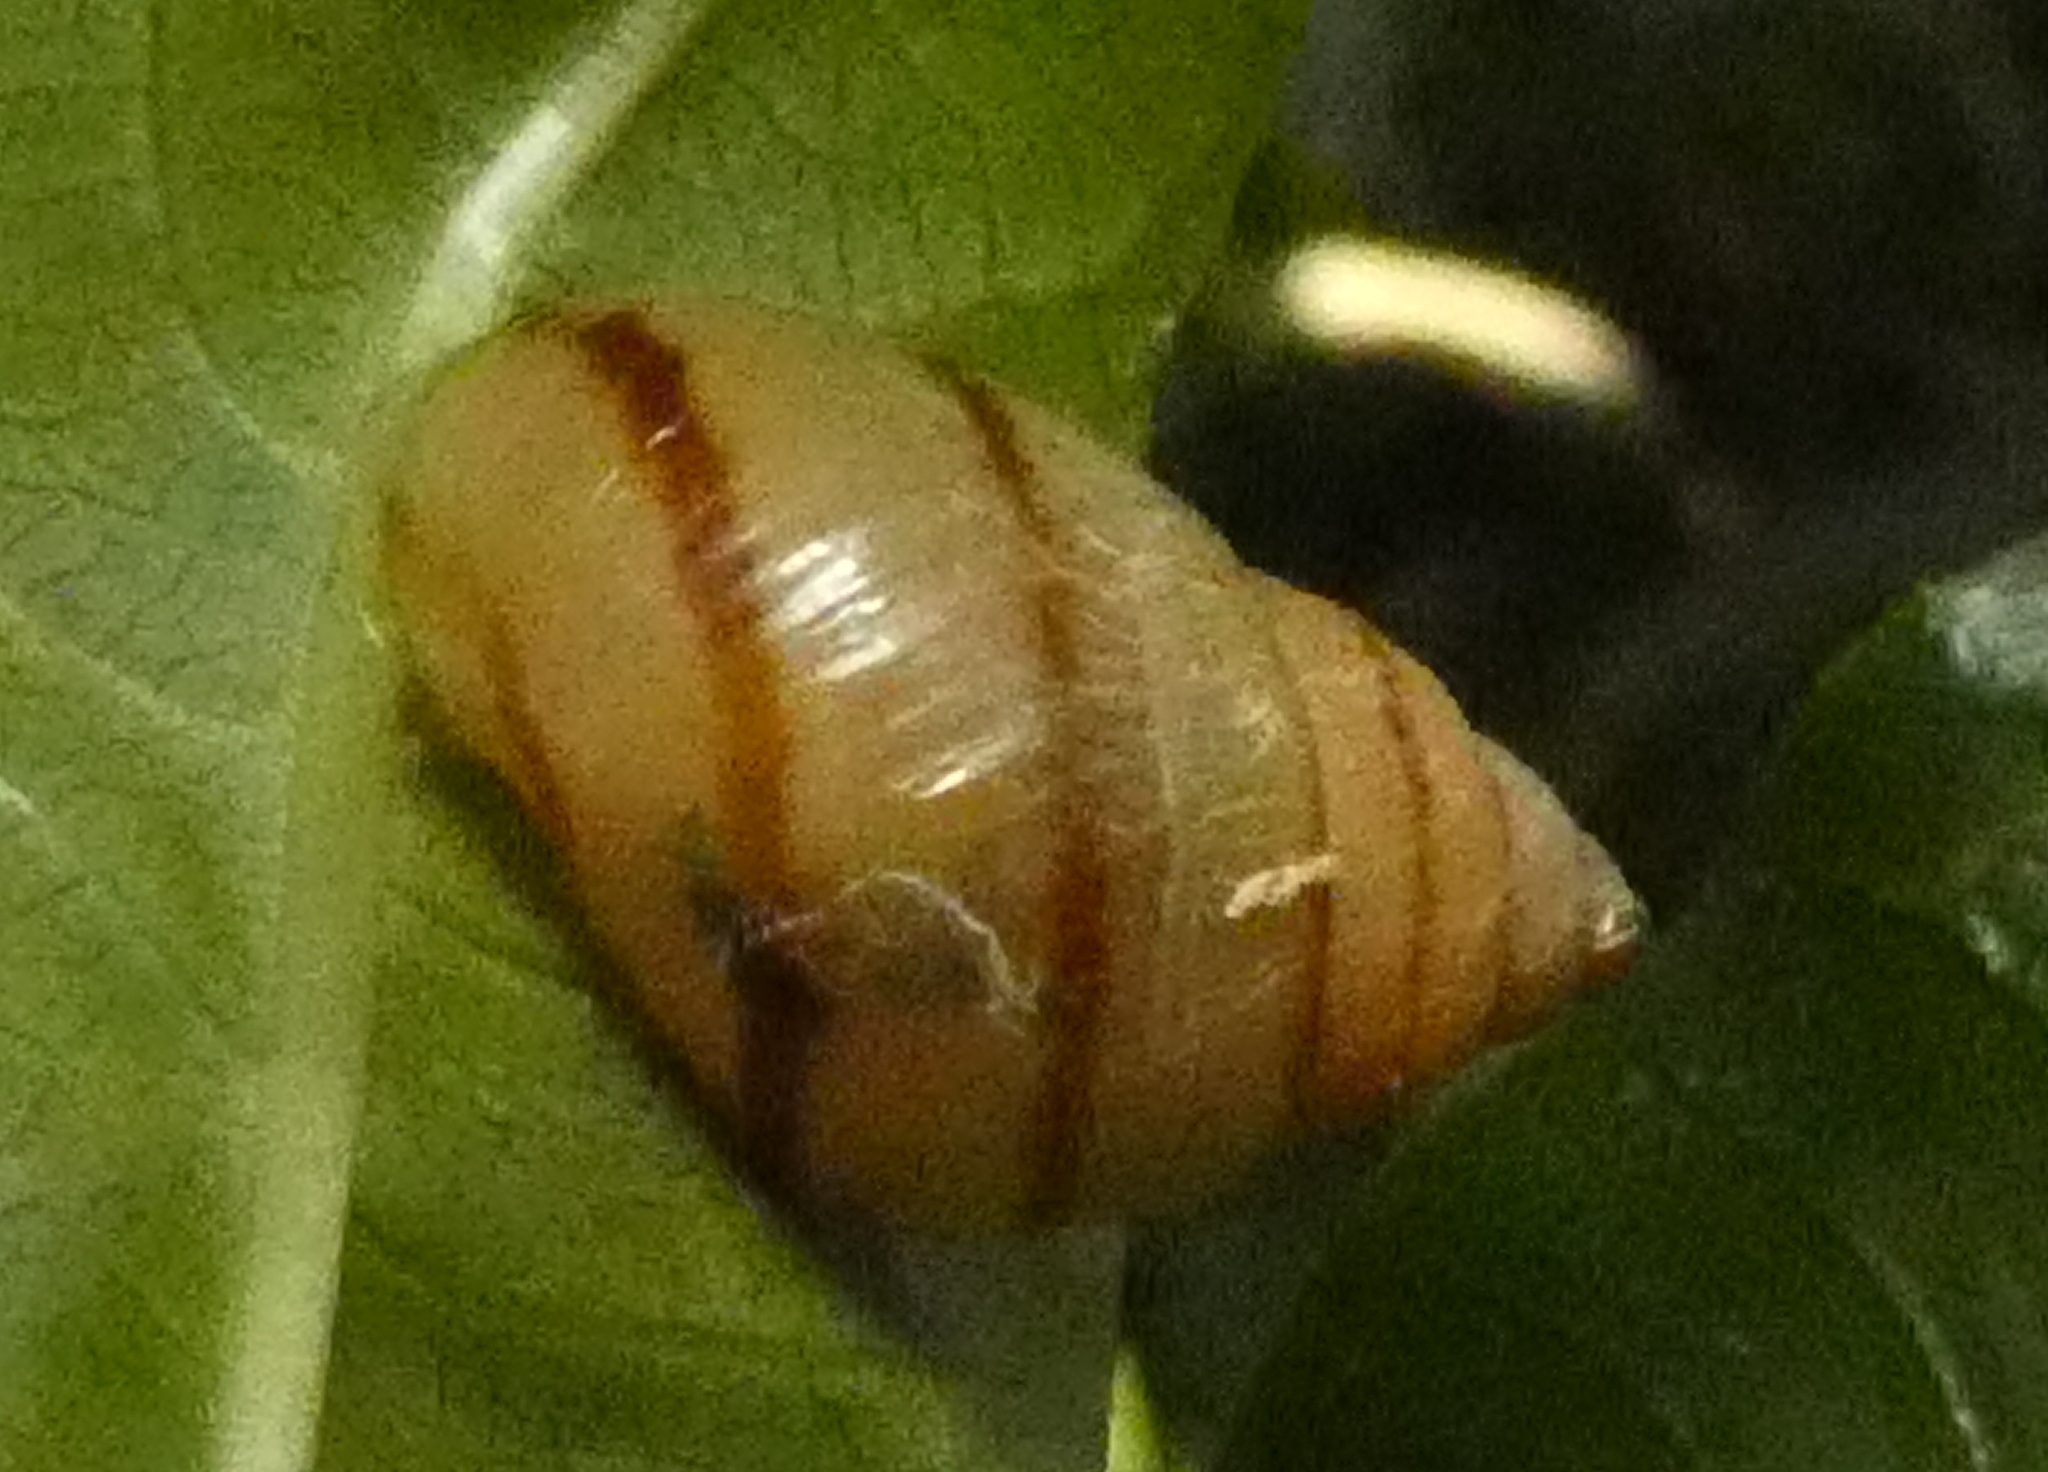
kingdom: Animalia
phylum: Mollusca
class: Gastropoda
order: Stylommatophora
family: Bulimulidae
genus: Drymaeus
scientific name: Drymaeus
